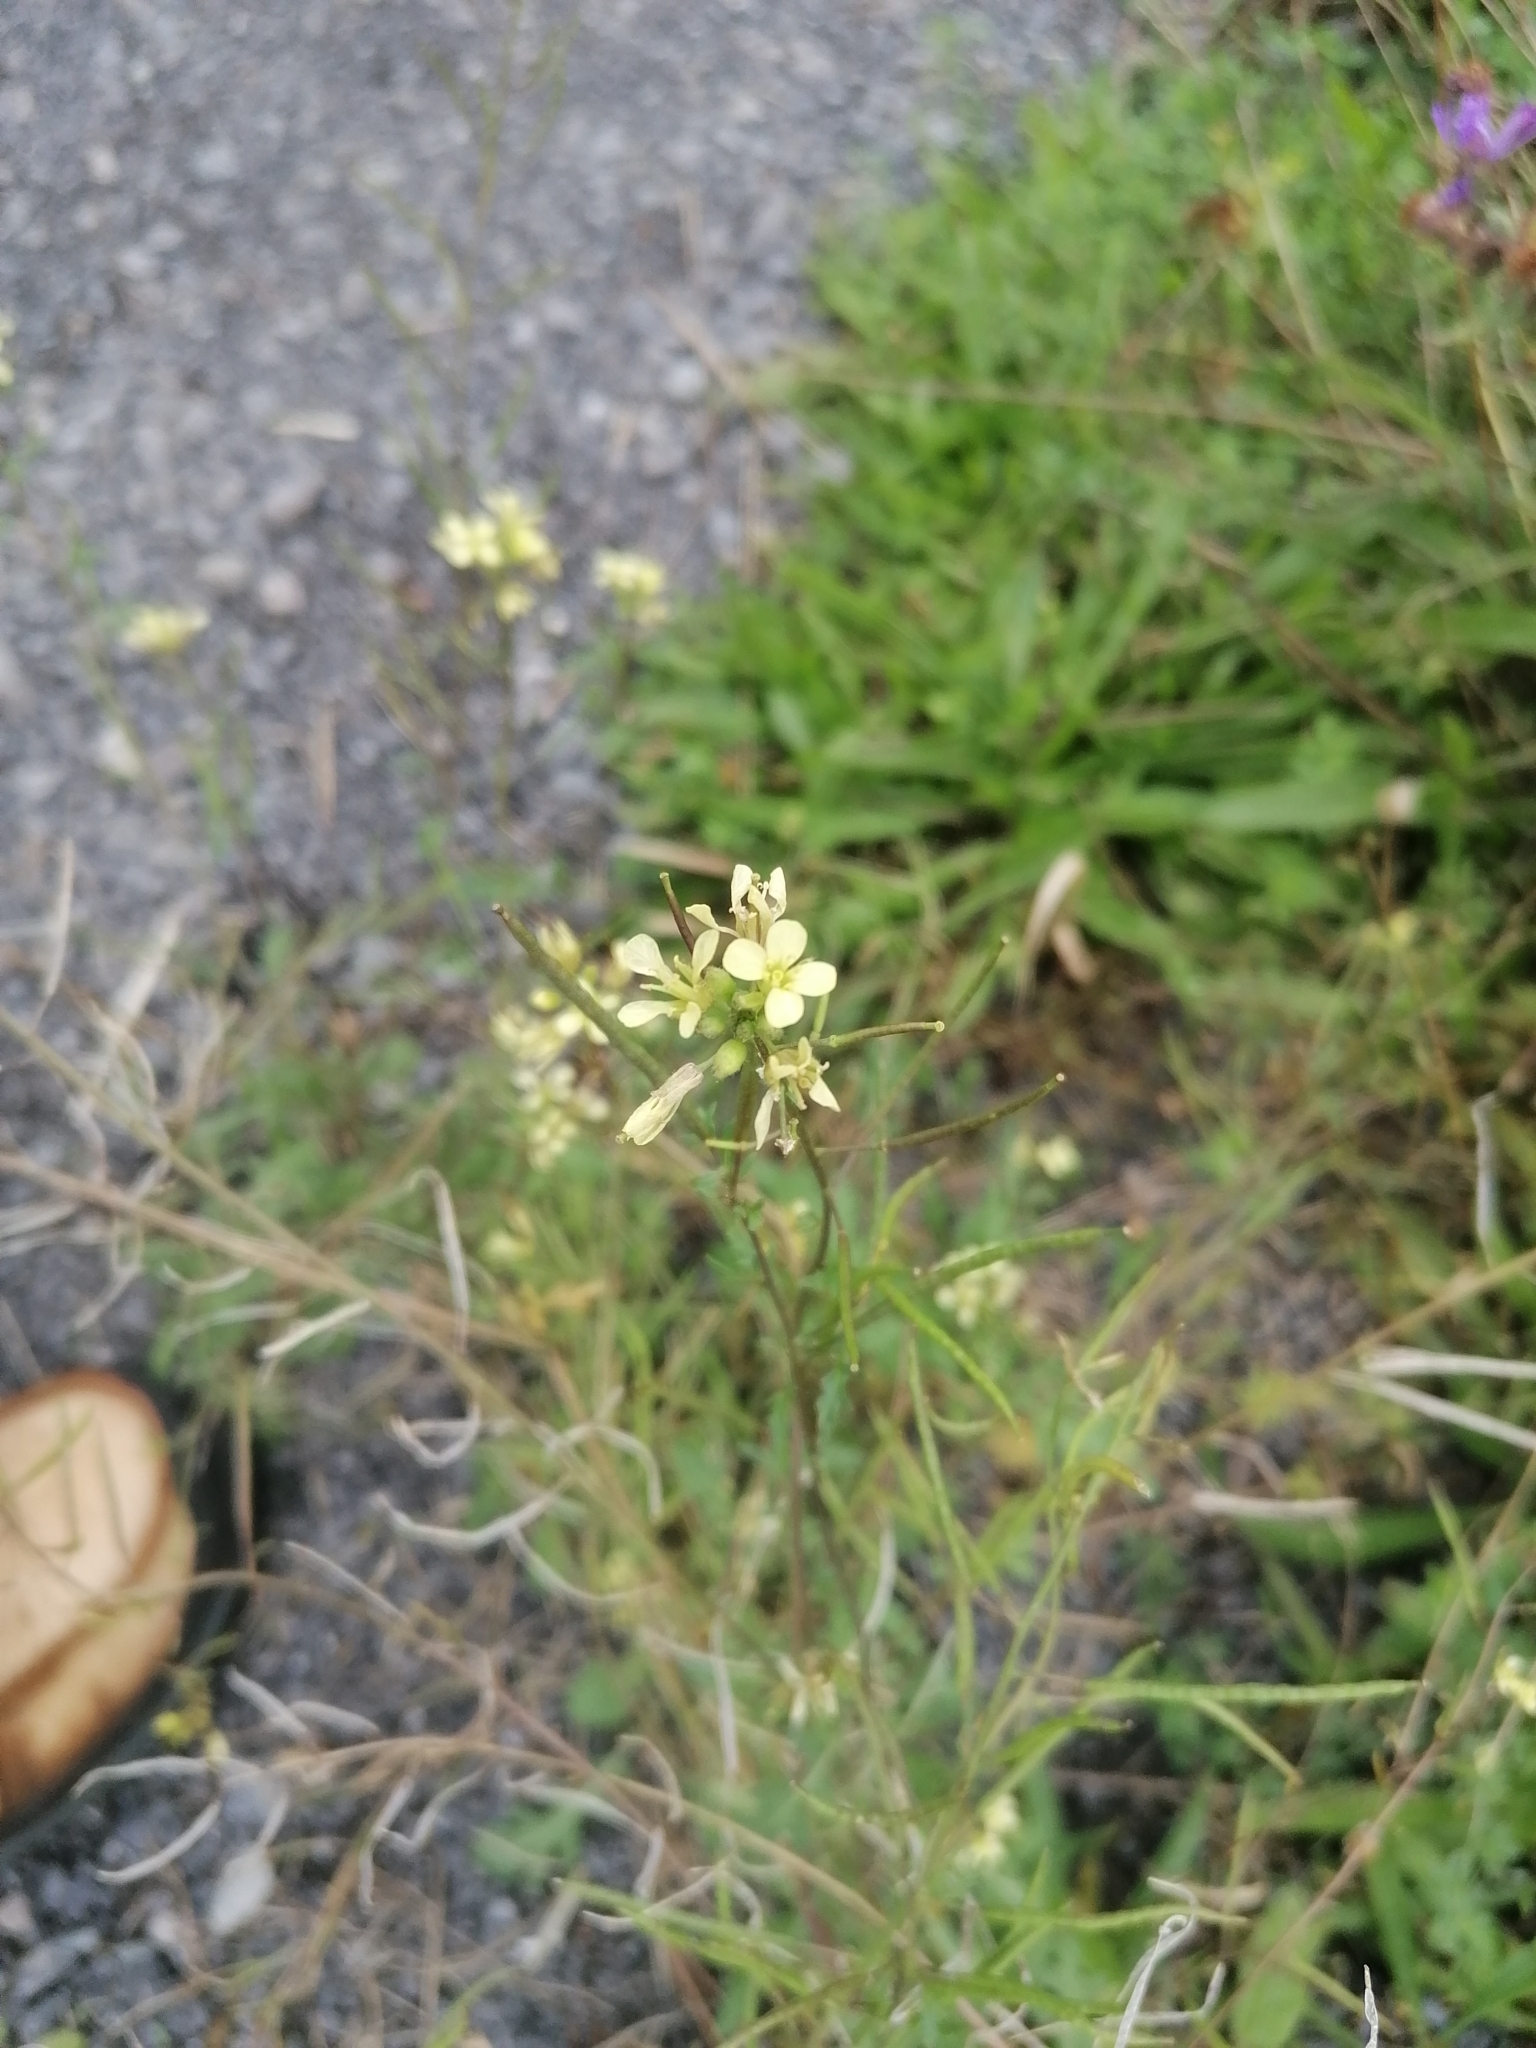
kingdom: Plantae
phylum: Tracheophyta
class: Magnoliopsida
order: Brassicales
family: Brassicaceae
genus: Erucastrum
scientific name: Erucastrum gallicum
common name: Hairy rocket
